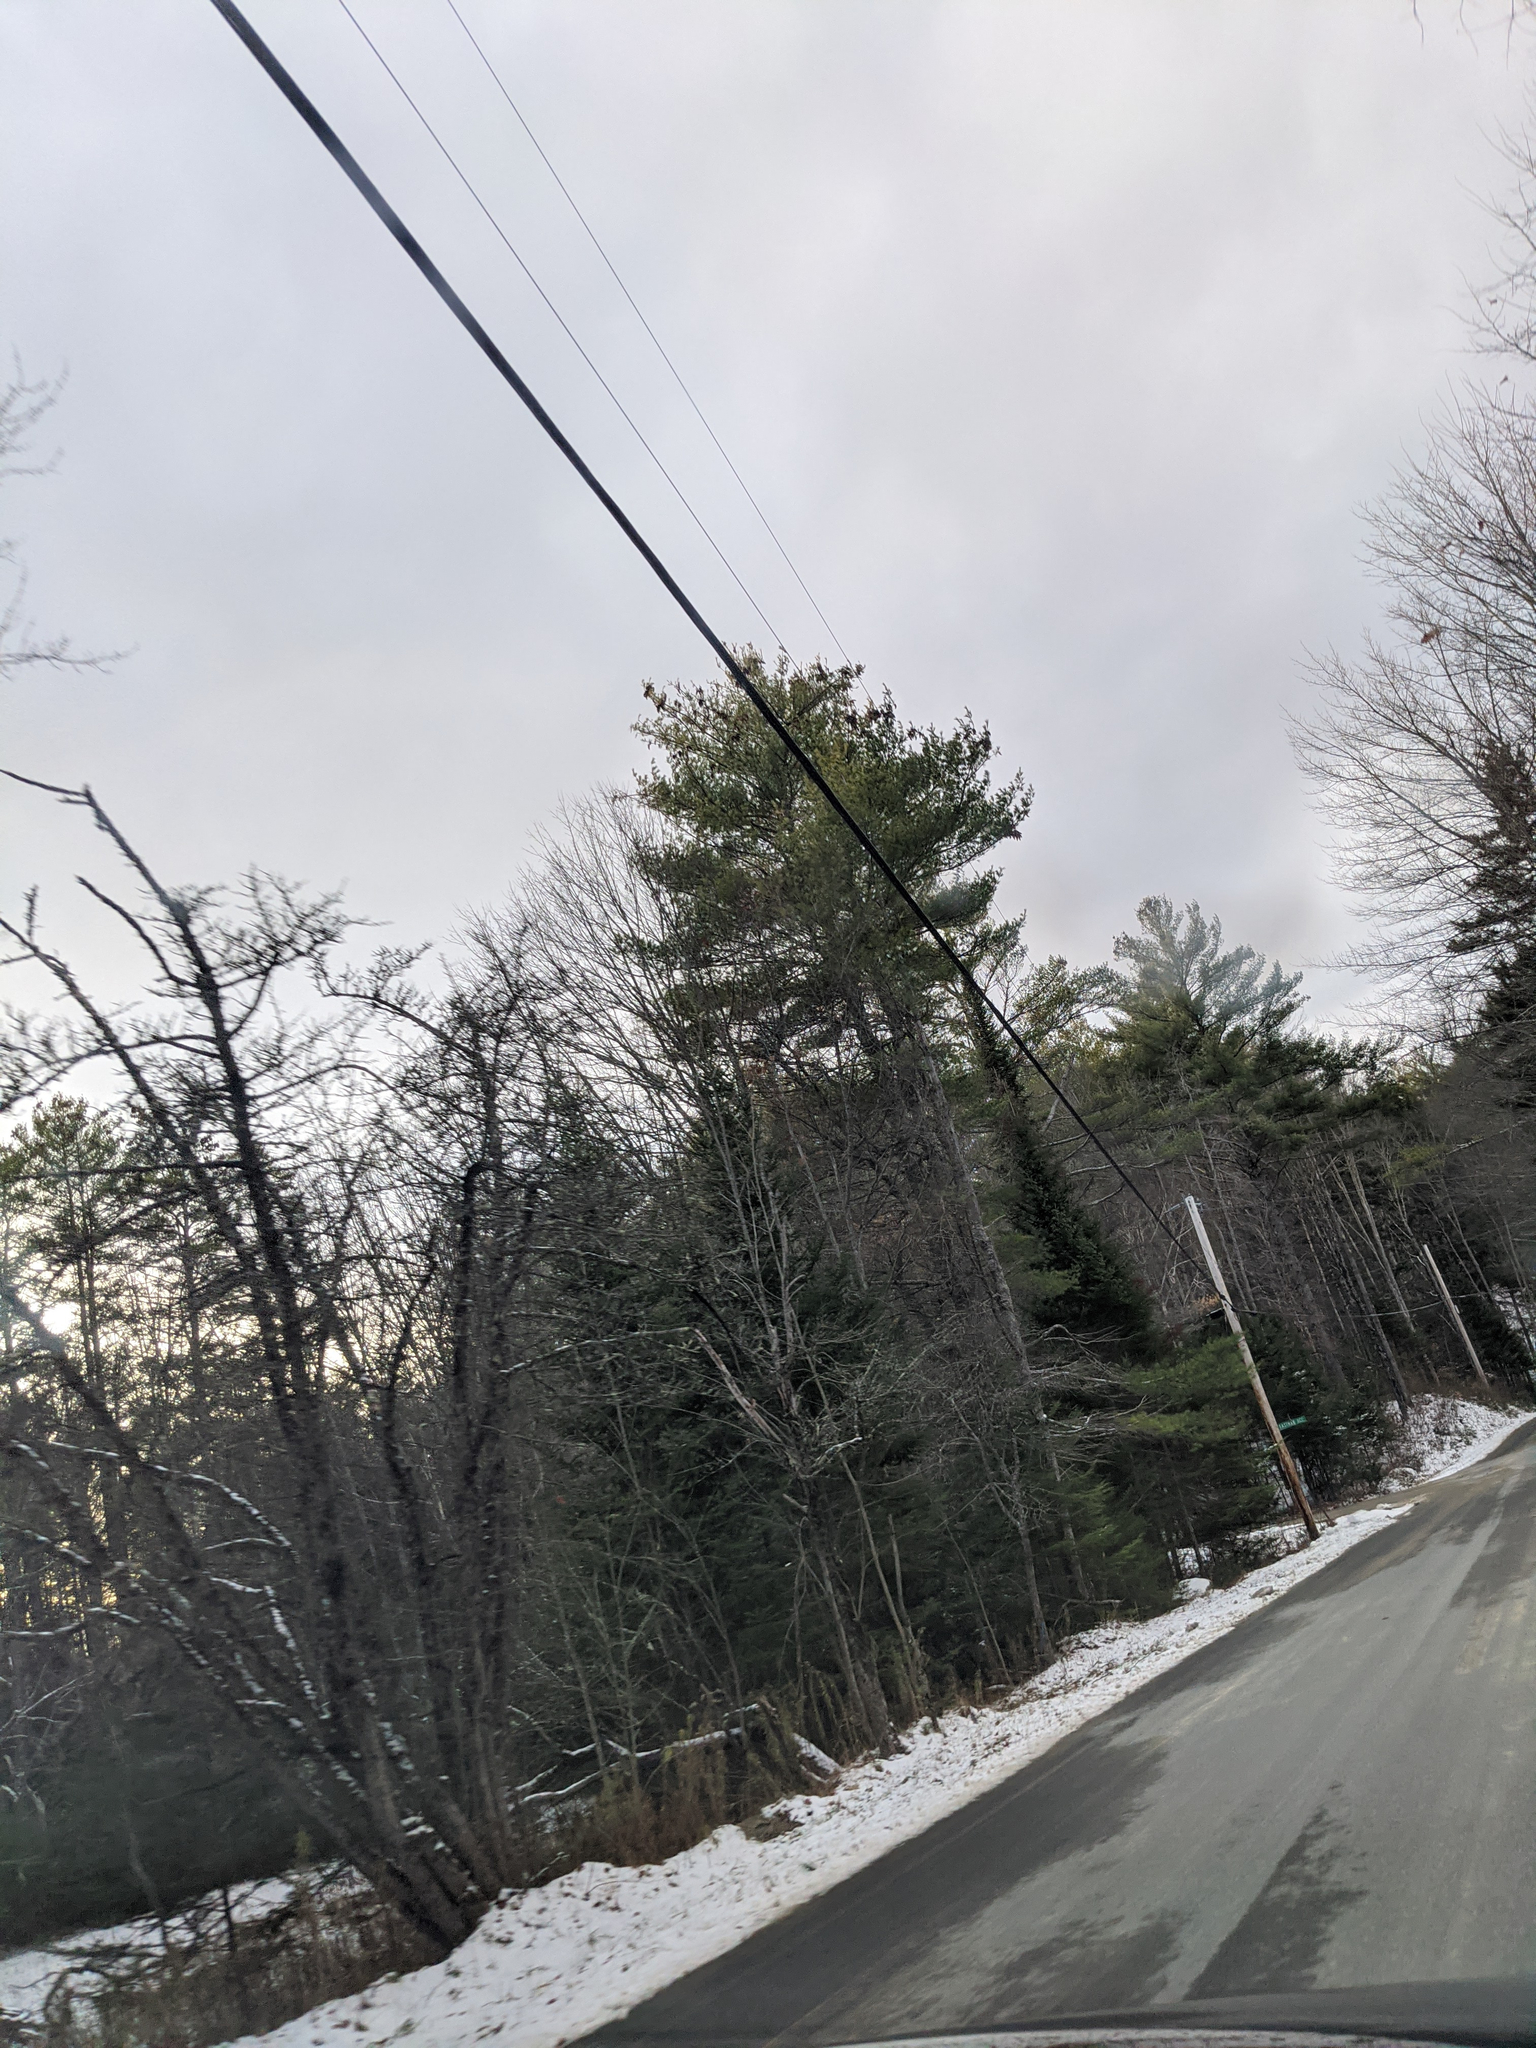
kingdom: Plantae
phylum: Tracheophyta
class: Pinopsida
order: Pinales
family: Pinaceae
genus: Pinus
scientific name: Pinus strobus
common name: Weymouth pine
